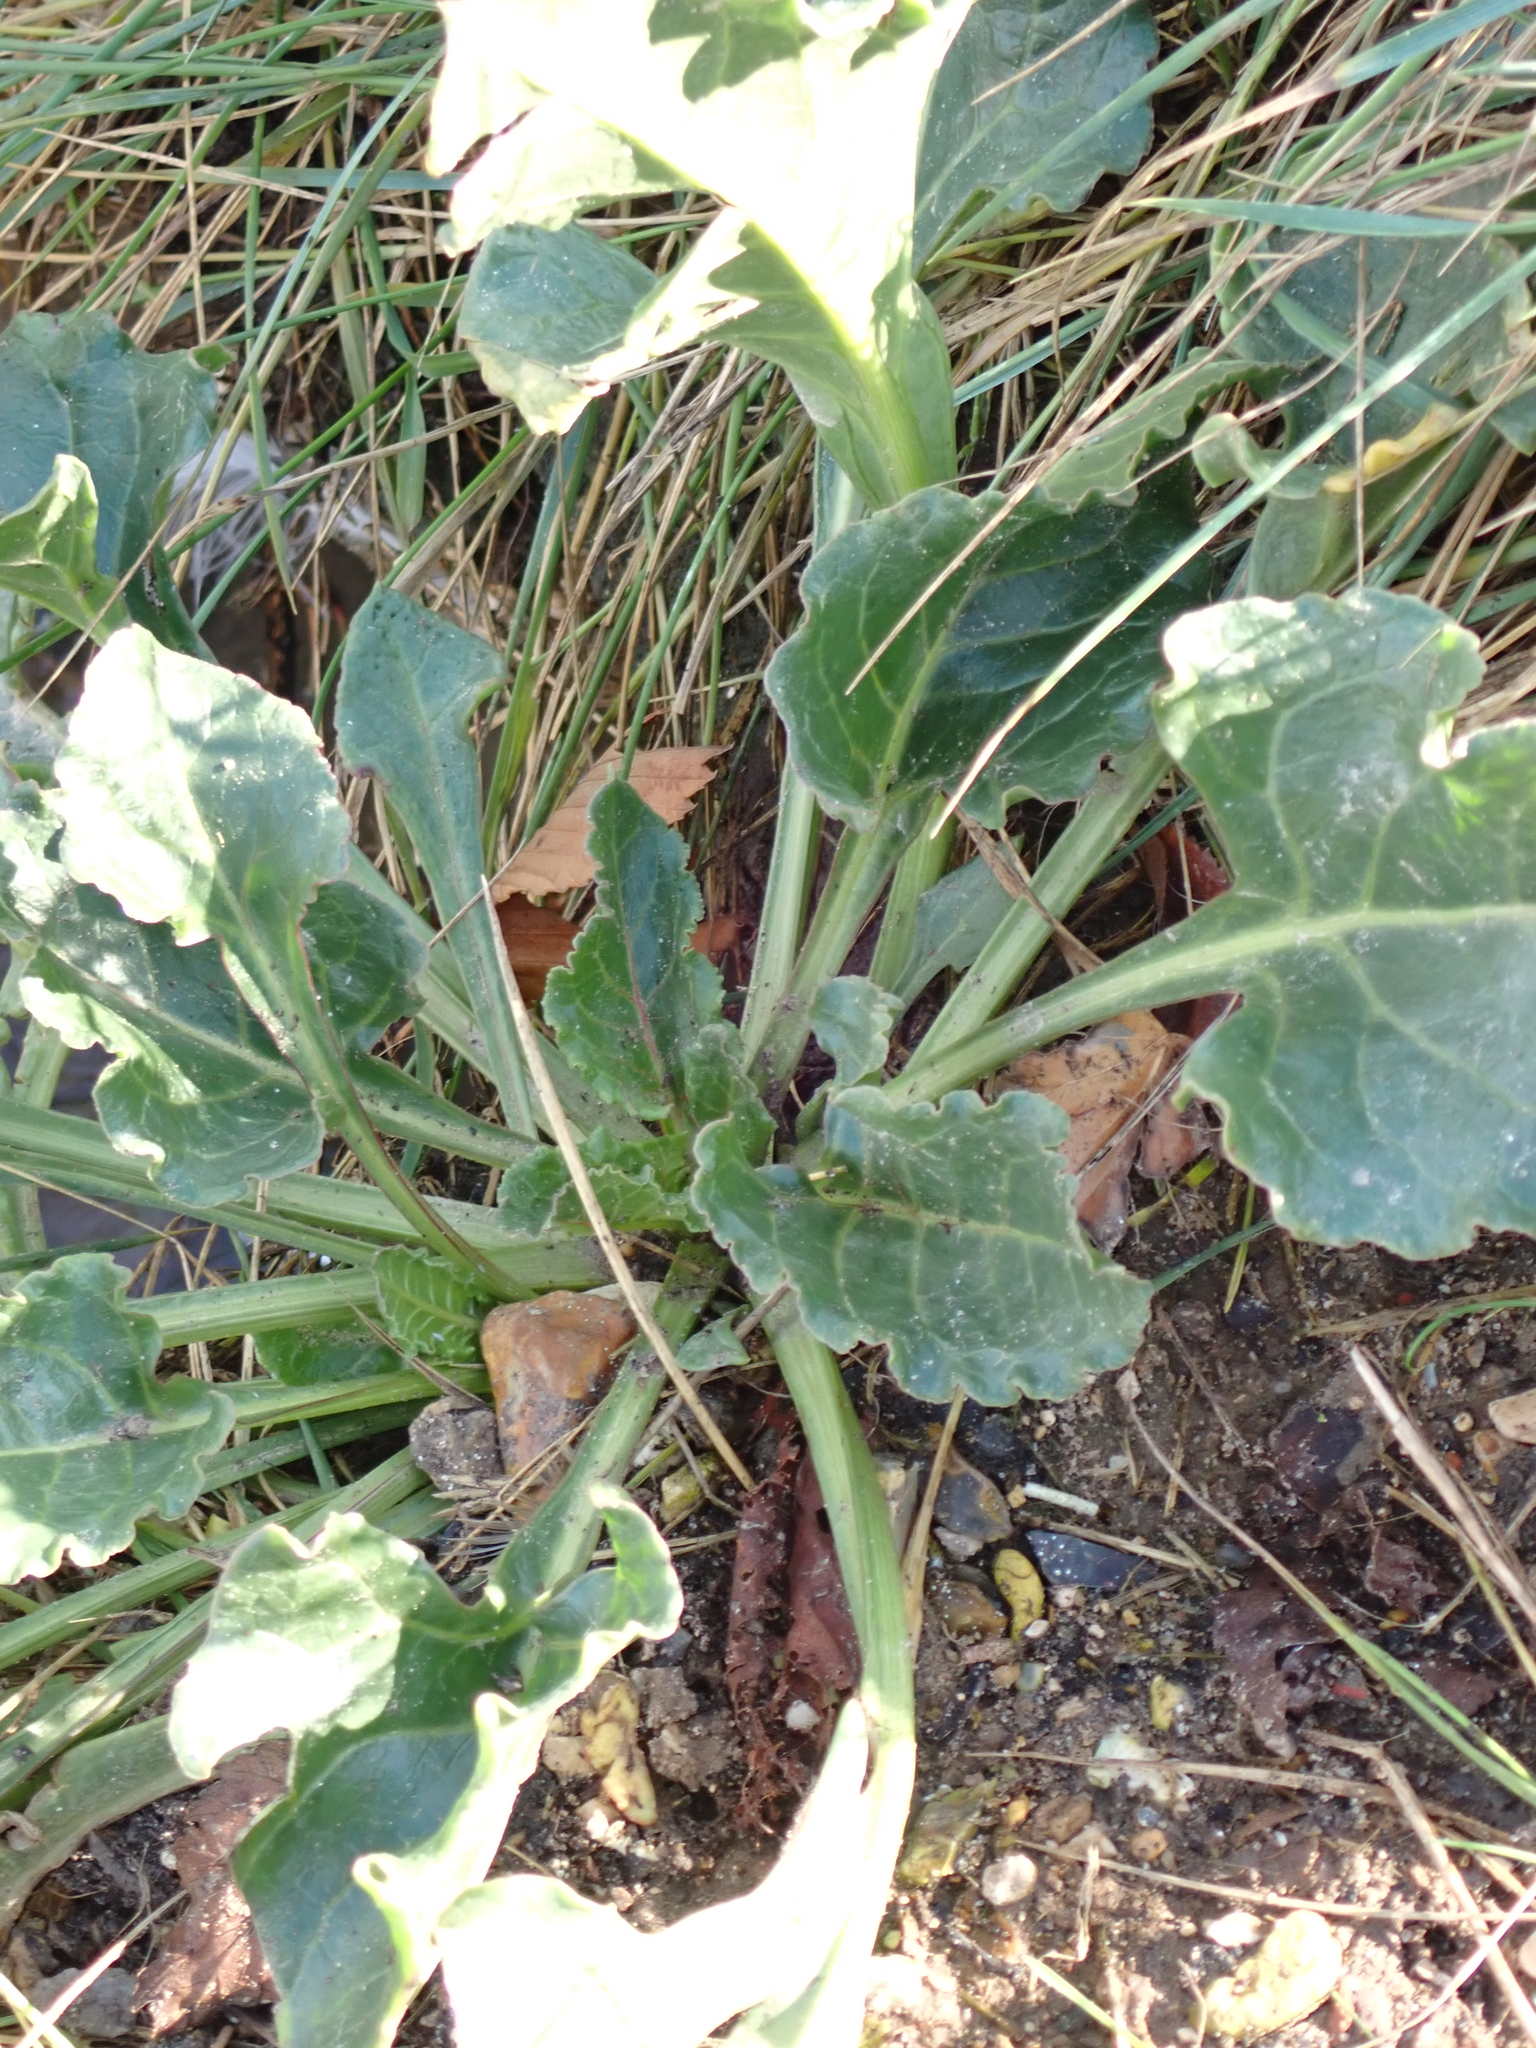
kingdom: Plantae
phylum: Tracheophyta
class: Magnoliopsida
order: Caryophyllales
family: Amaranthaceae
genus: Beta
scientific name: Beta vulgaris
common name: Beet
